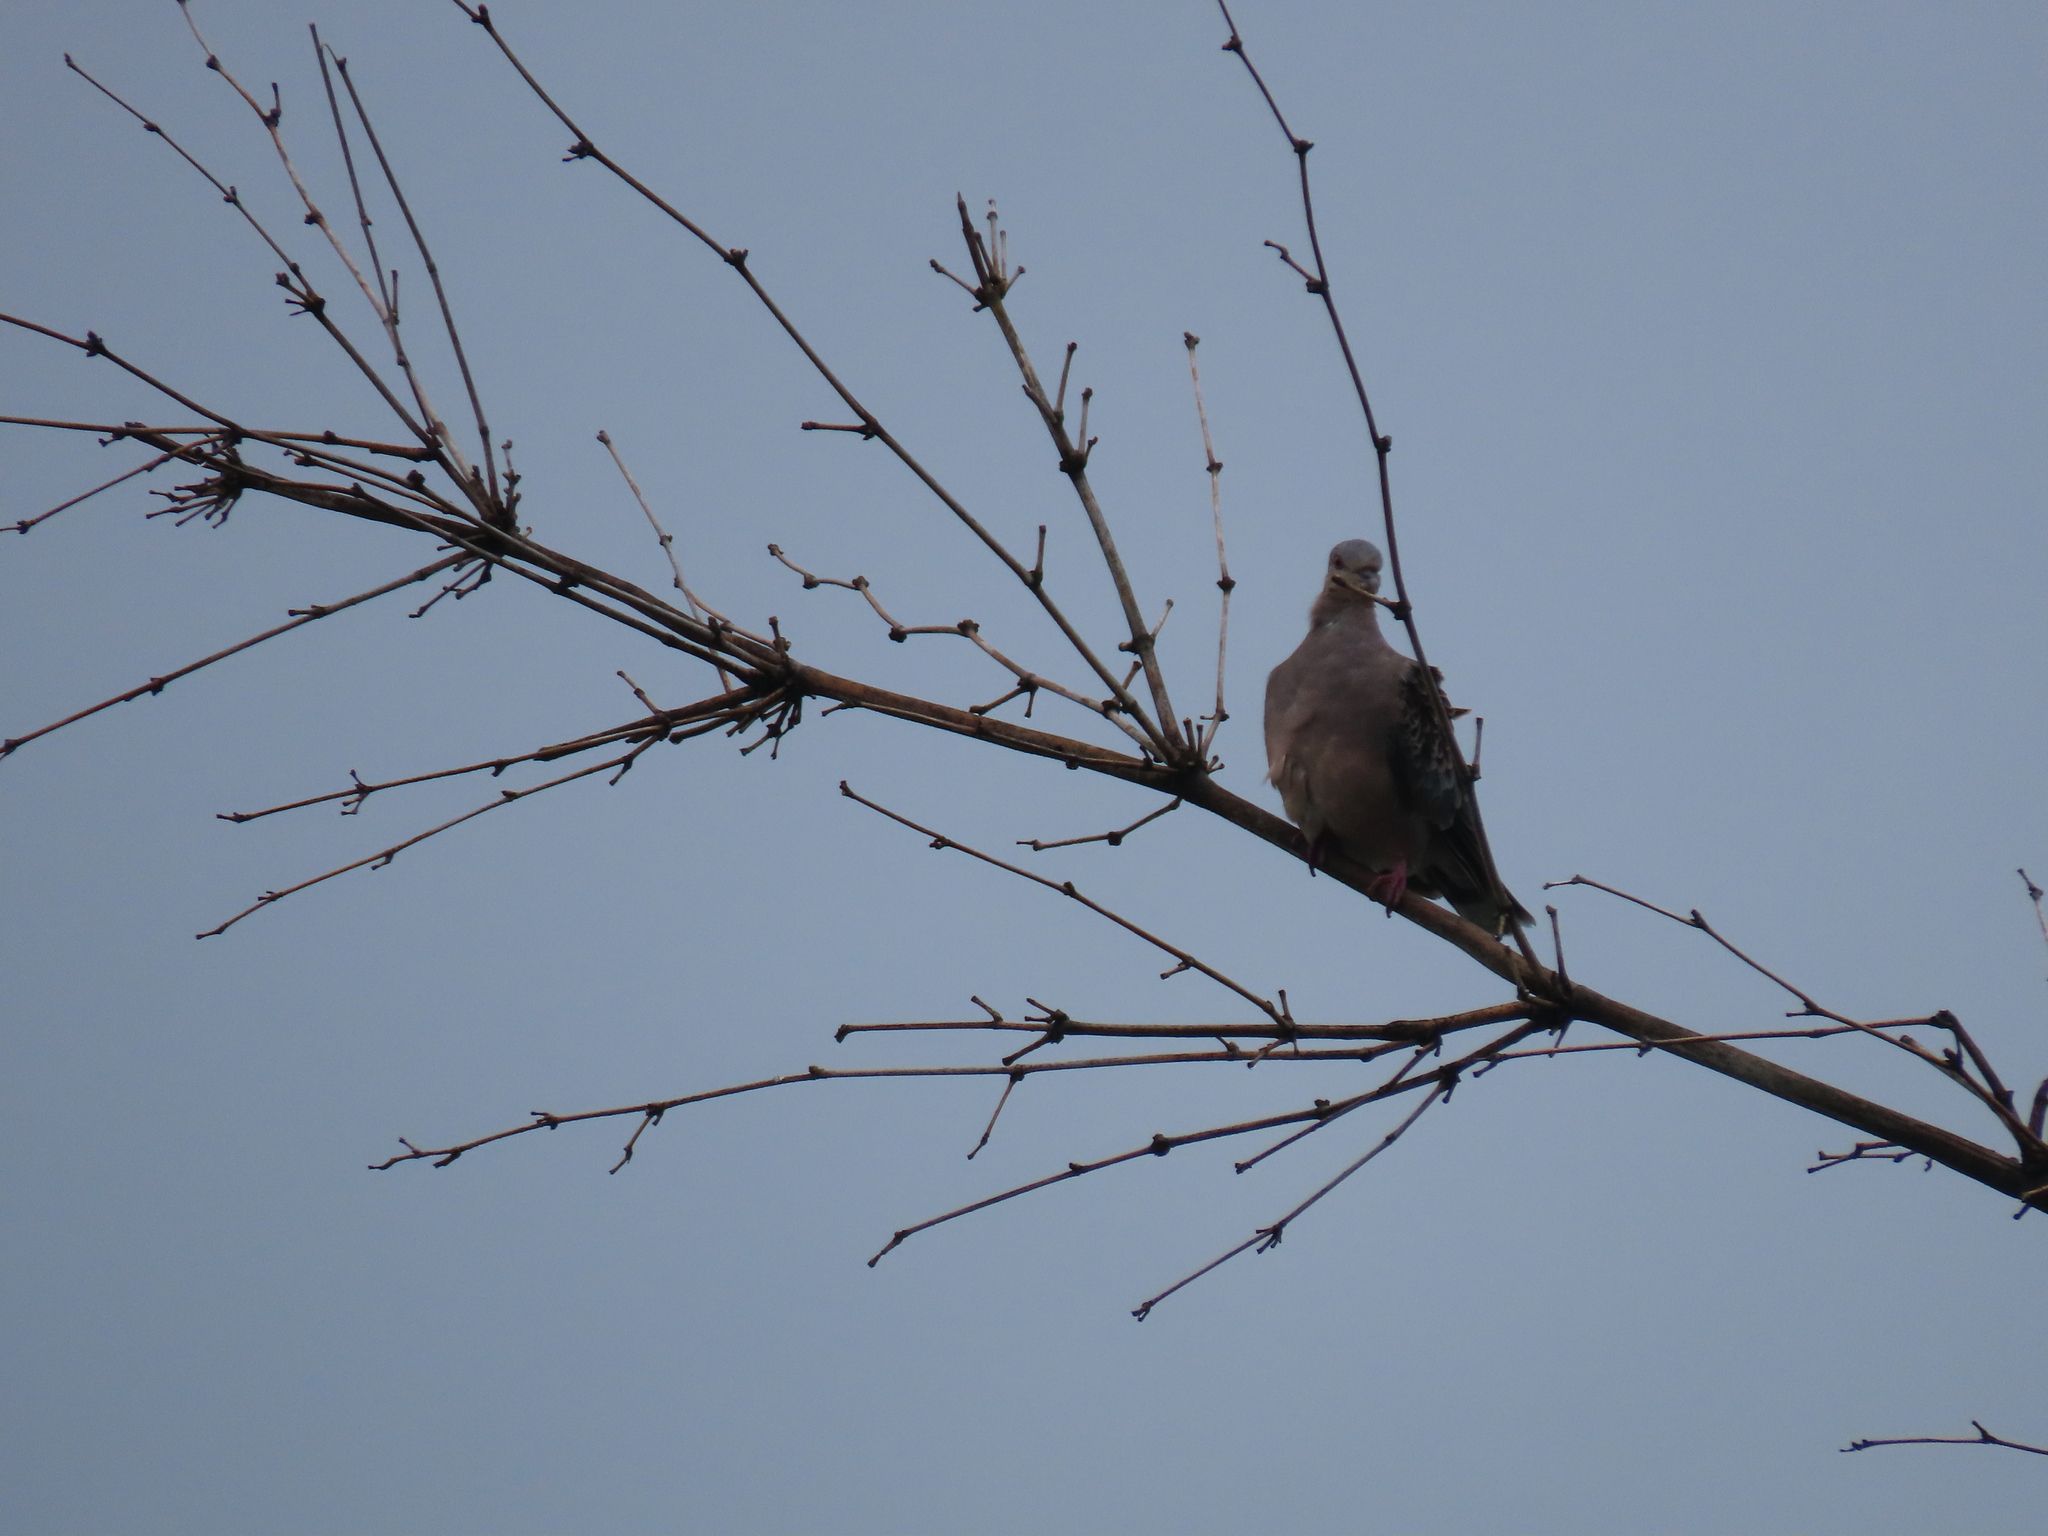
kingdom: Animalia
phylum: Chordata
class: Aves
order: Columbiformes
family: Columbidae
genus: Streptopelia
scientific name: Streptopelia orientalis
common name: Oriental turtle dove
